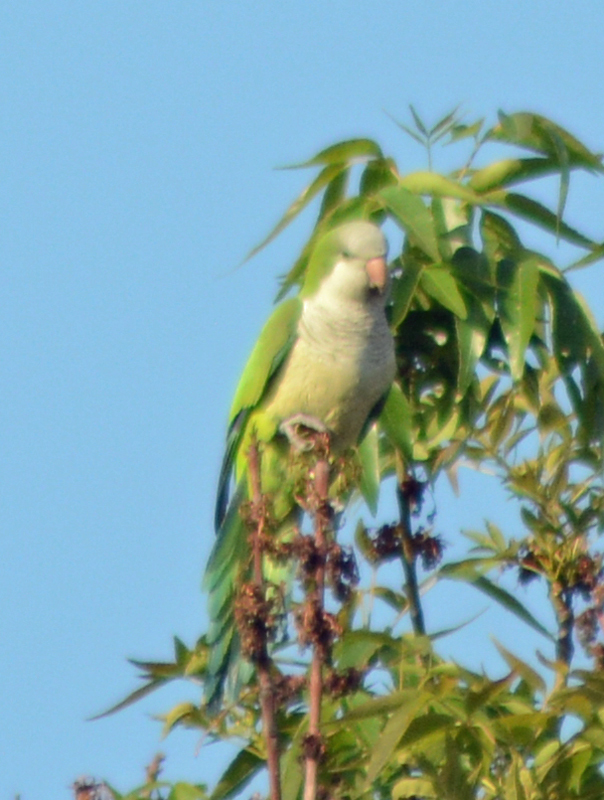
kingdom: Animalia
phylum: Chordata
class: Aves
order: Psittaciformes
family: Psittacidae
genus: Myiopsitta
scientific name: Myiopsitta monachus
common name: Monk parakeet
